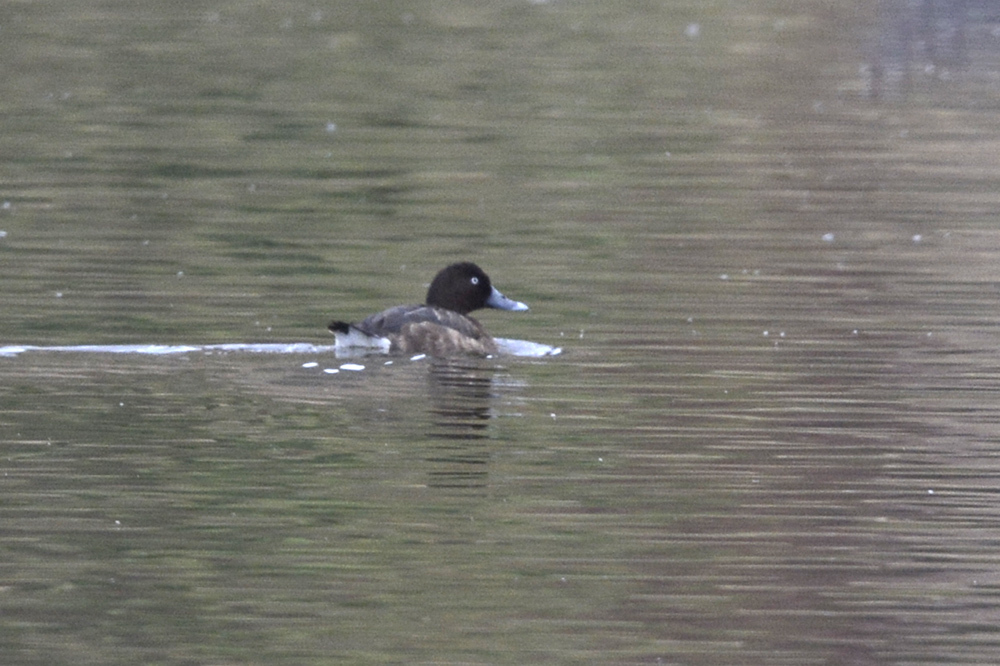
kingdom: Animalia
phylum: Chordata
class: Aves
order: Anseriformes
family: Anatidae
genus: Aythya
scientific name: Aythya australis
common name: Hardhead
